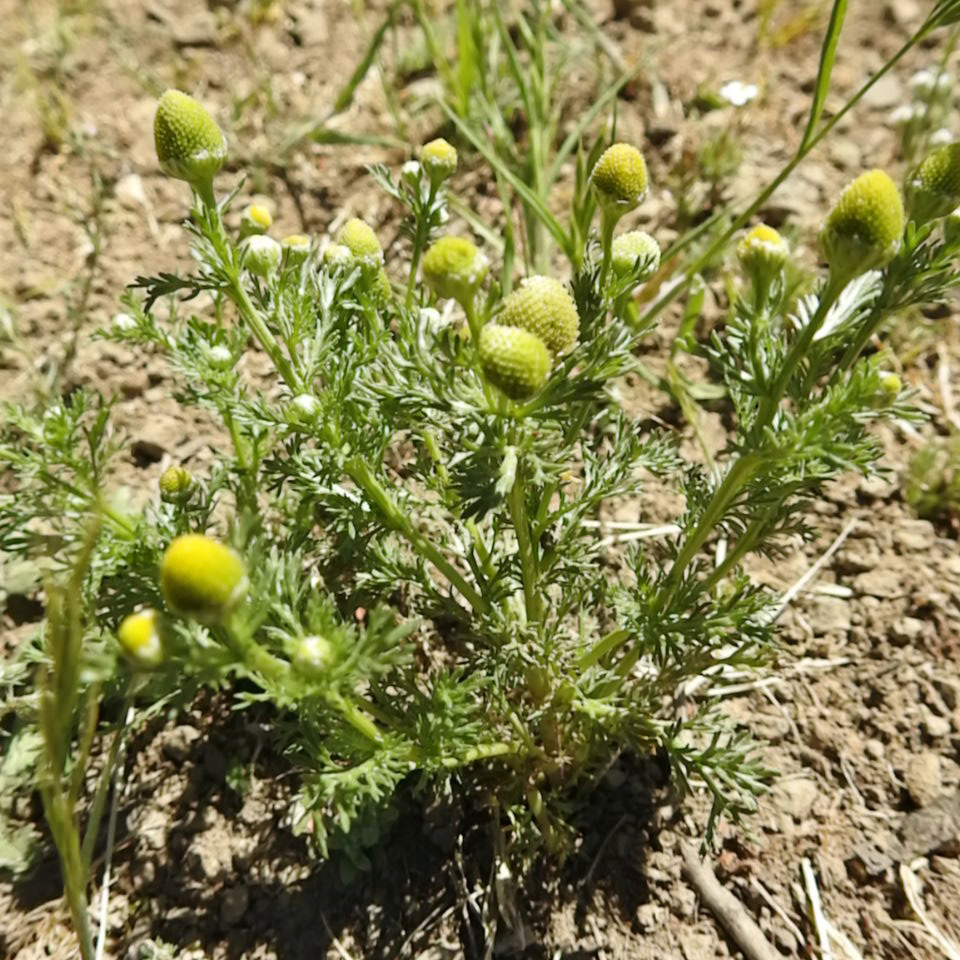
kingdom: Plantae
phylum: Tracheophyta
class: Magnoliopsida
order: Asterales
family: Asteraceae
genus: Matricaria
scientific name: Matricaria discoidea
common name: Disc mayweed
